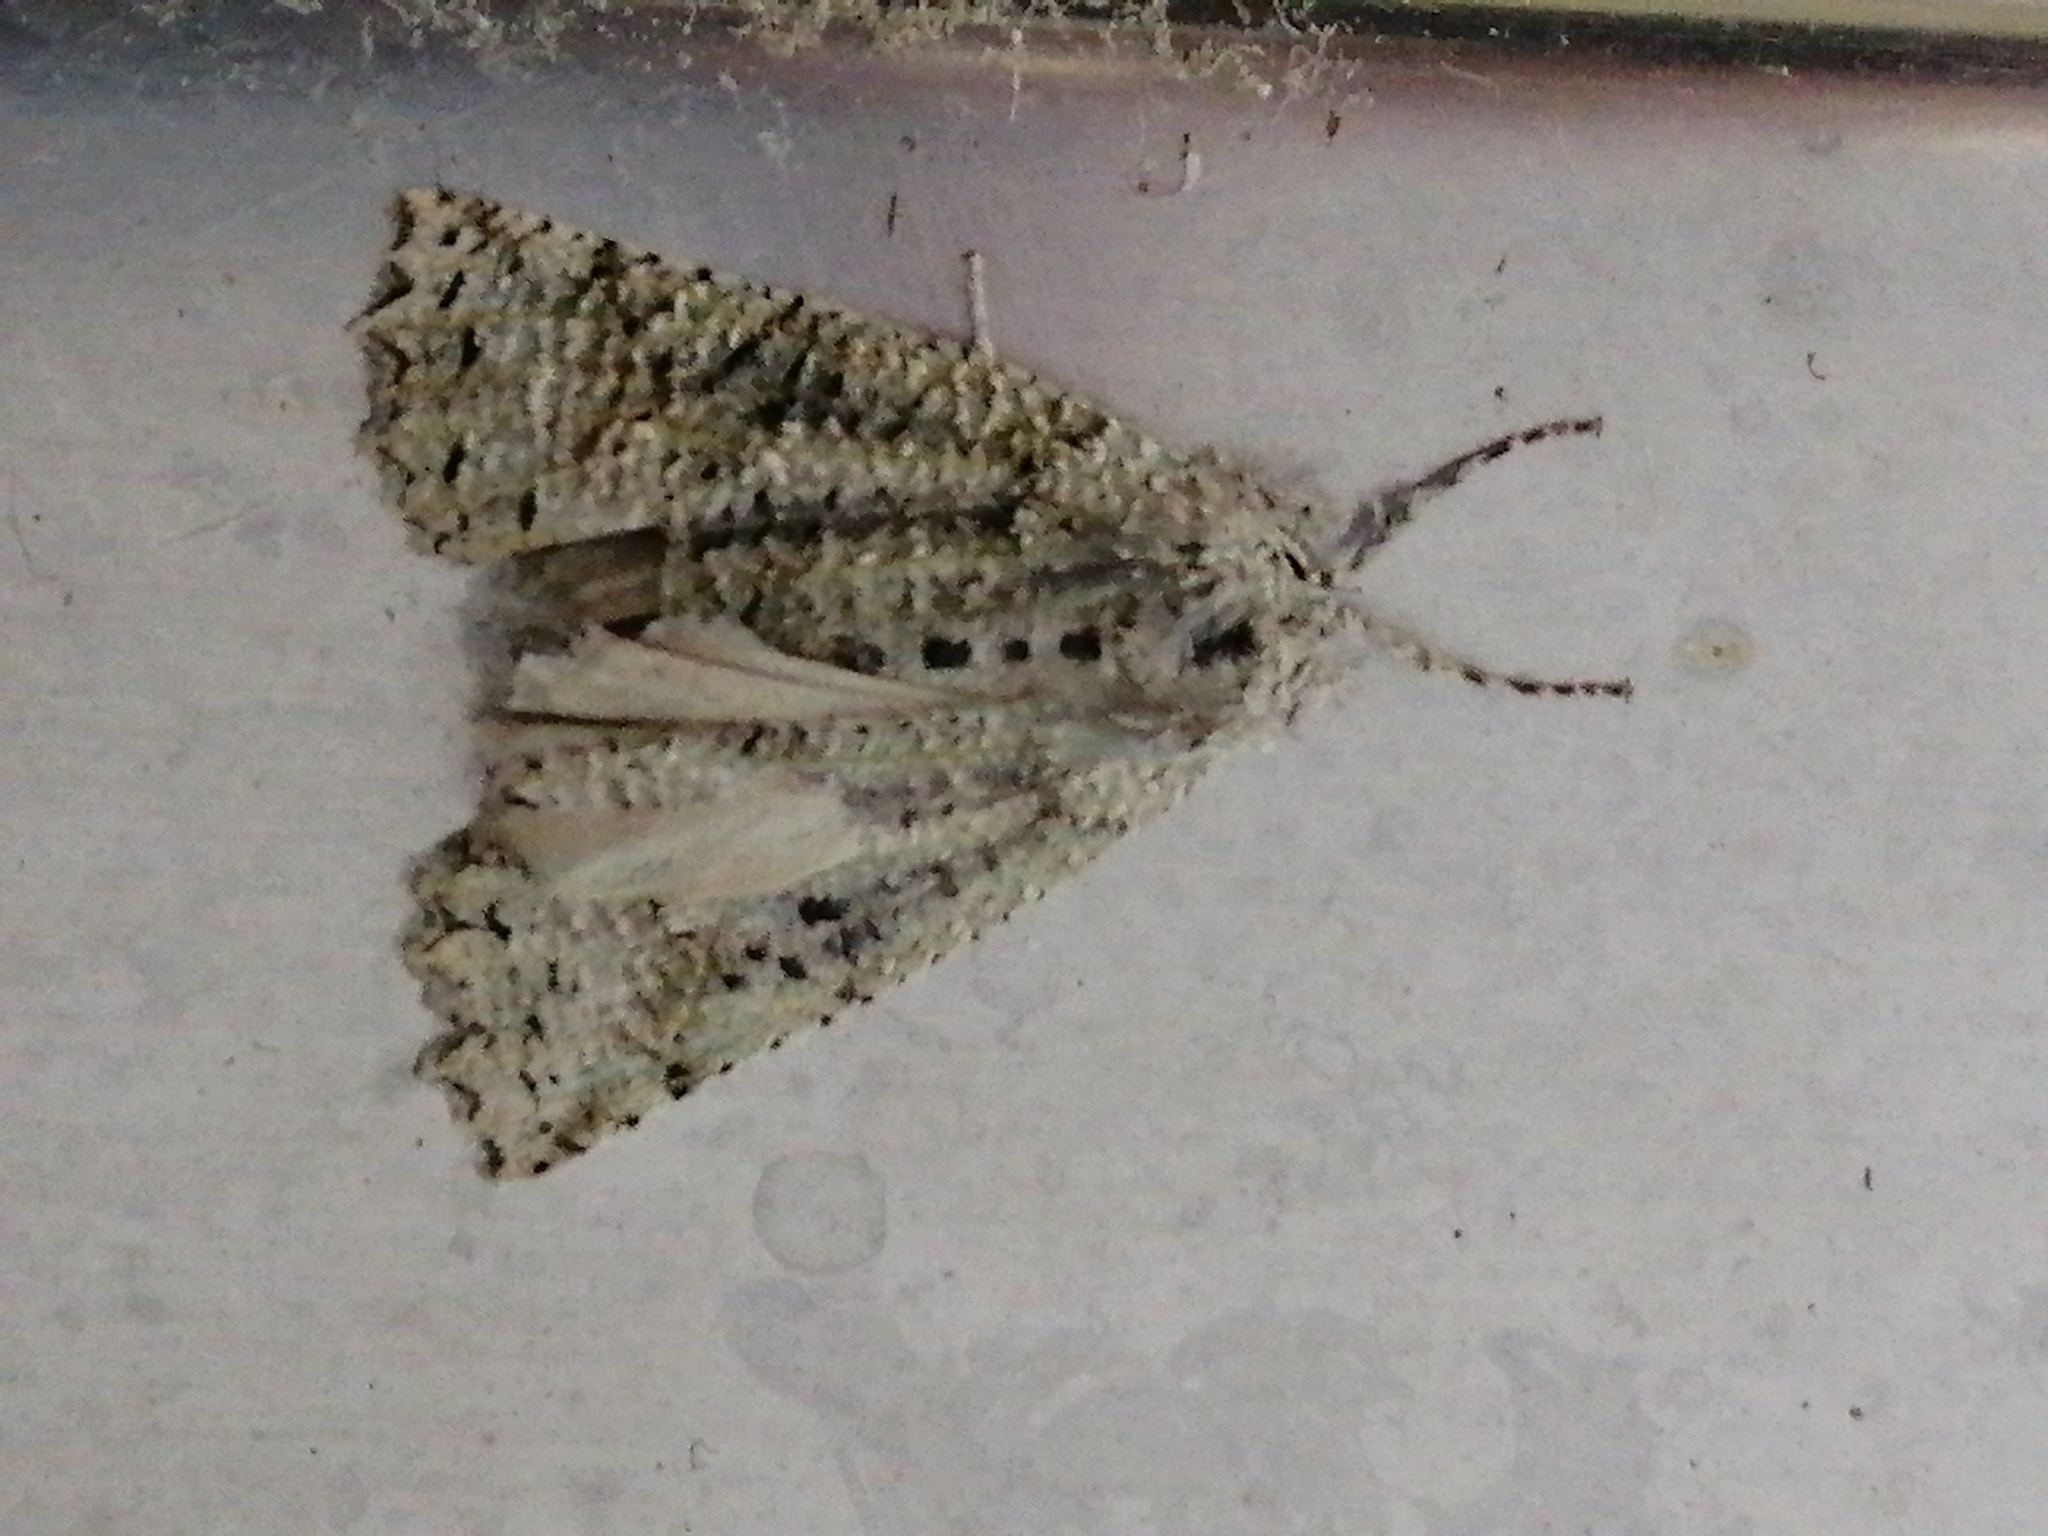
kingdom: Animalia
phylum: Arthropoda
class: Insecta
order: Lepidoptera
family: Geometridae
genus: Declana
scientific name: Declana floccosa
